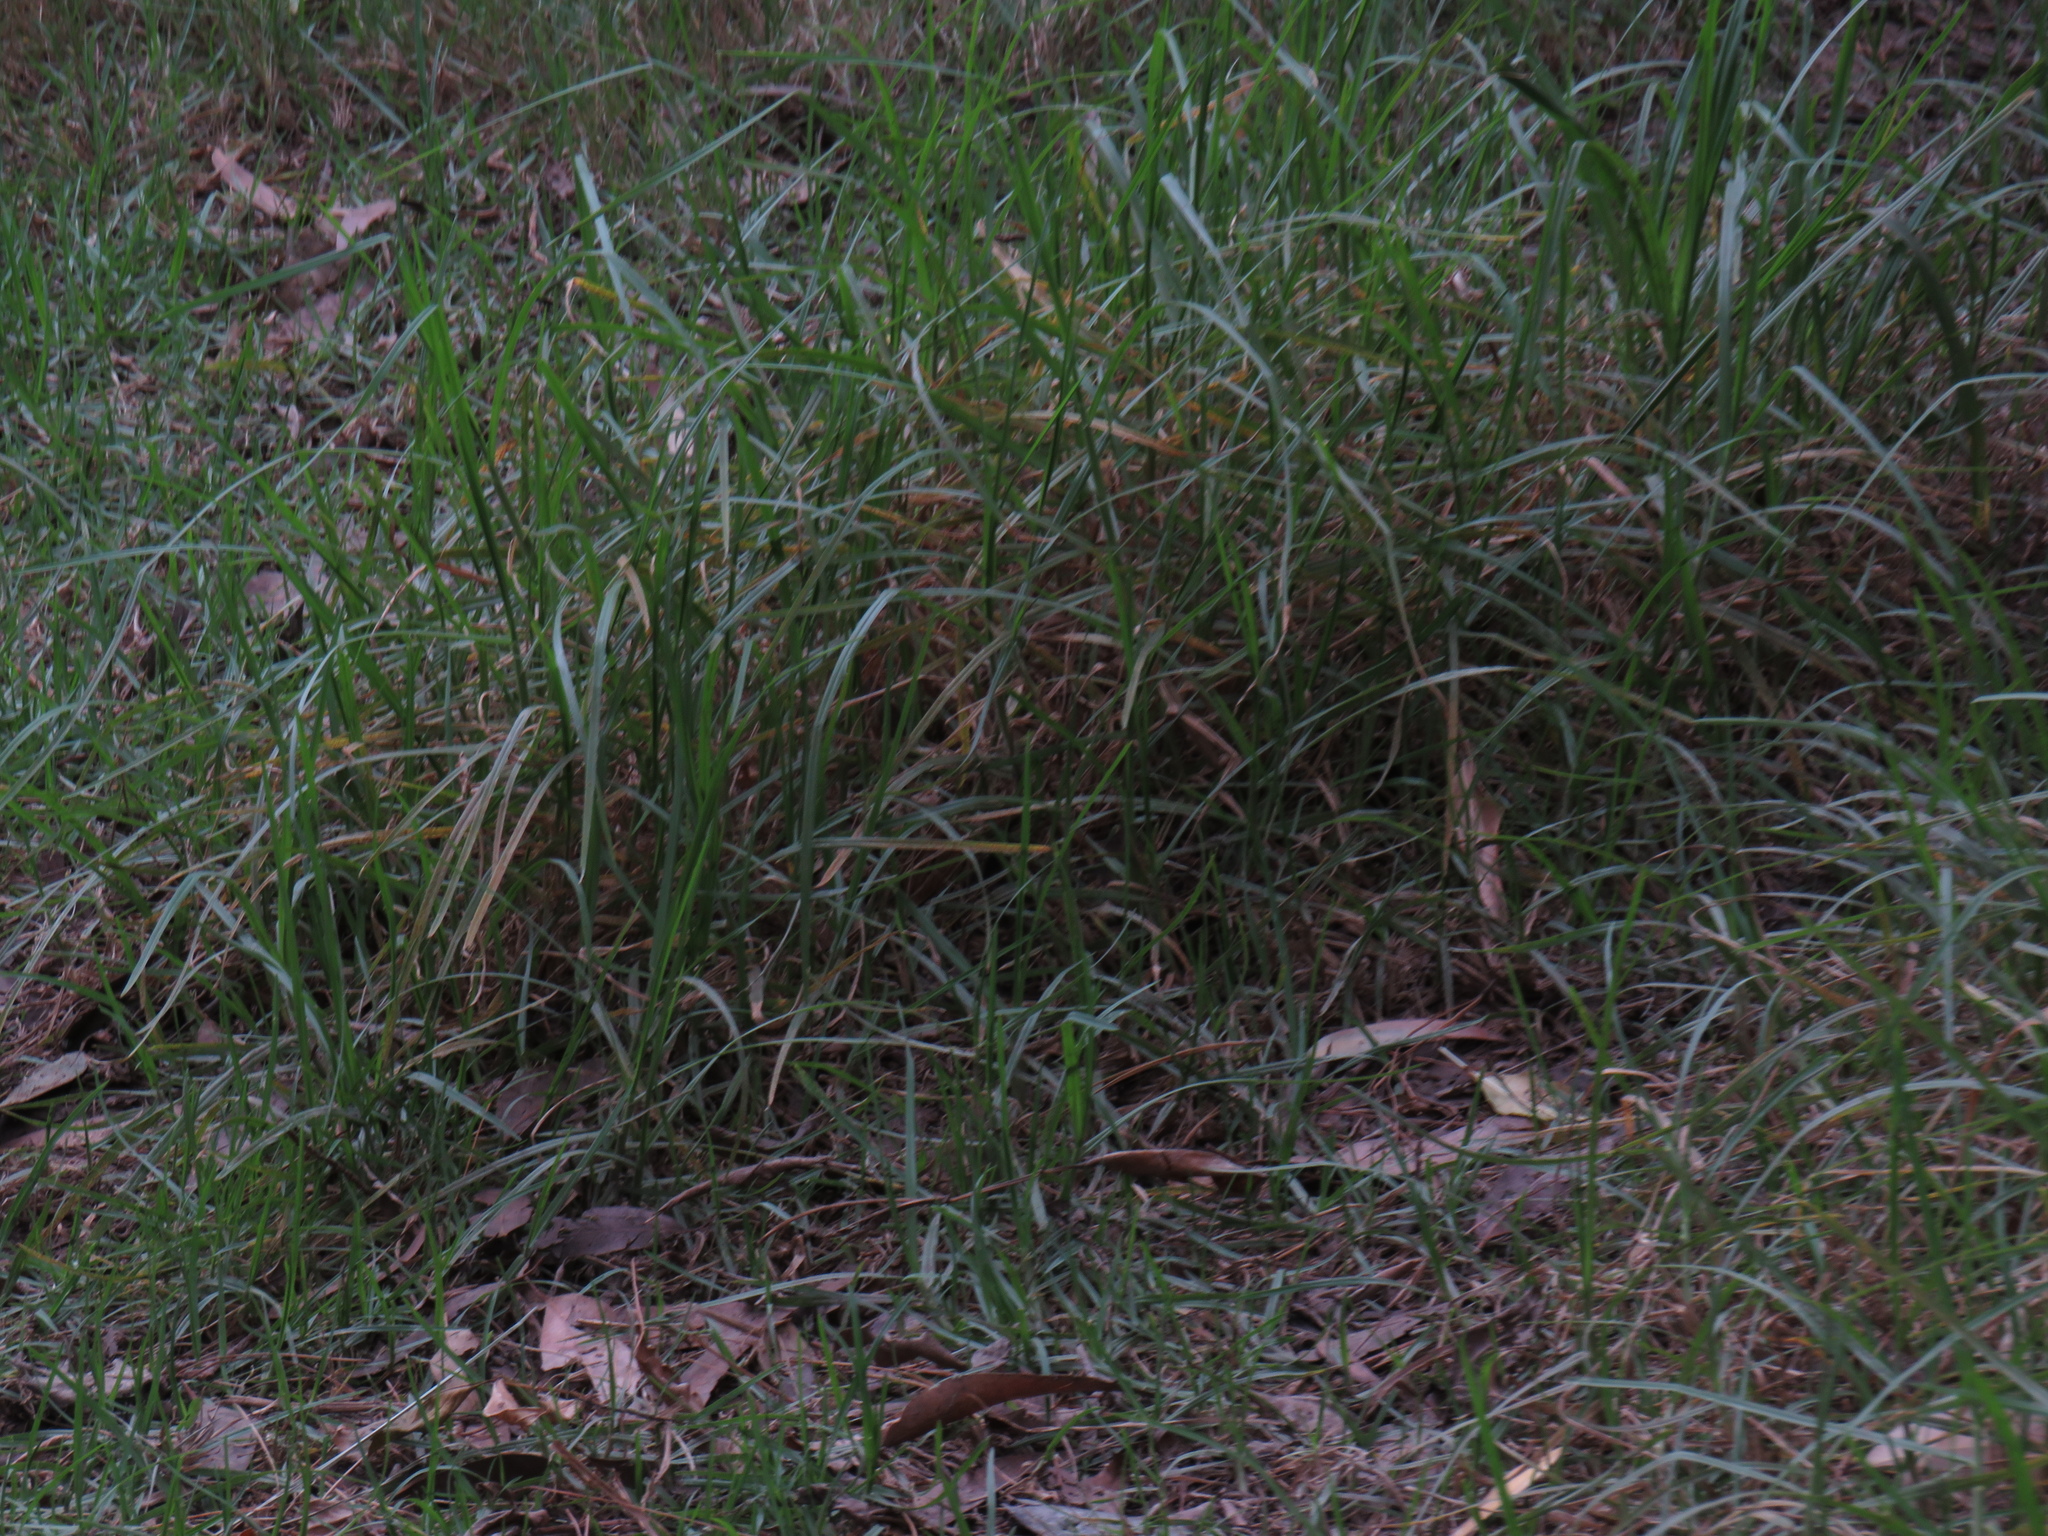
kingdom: Plantae
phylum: Tracheophyta
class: Liliopsida
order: Poales
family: Poaceae
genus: Cenchrus
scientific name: Cenchrus clandestinus
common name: Kikuyugrass
